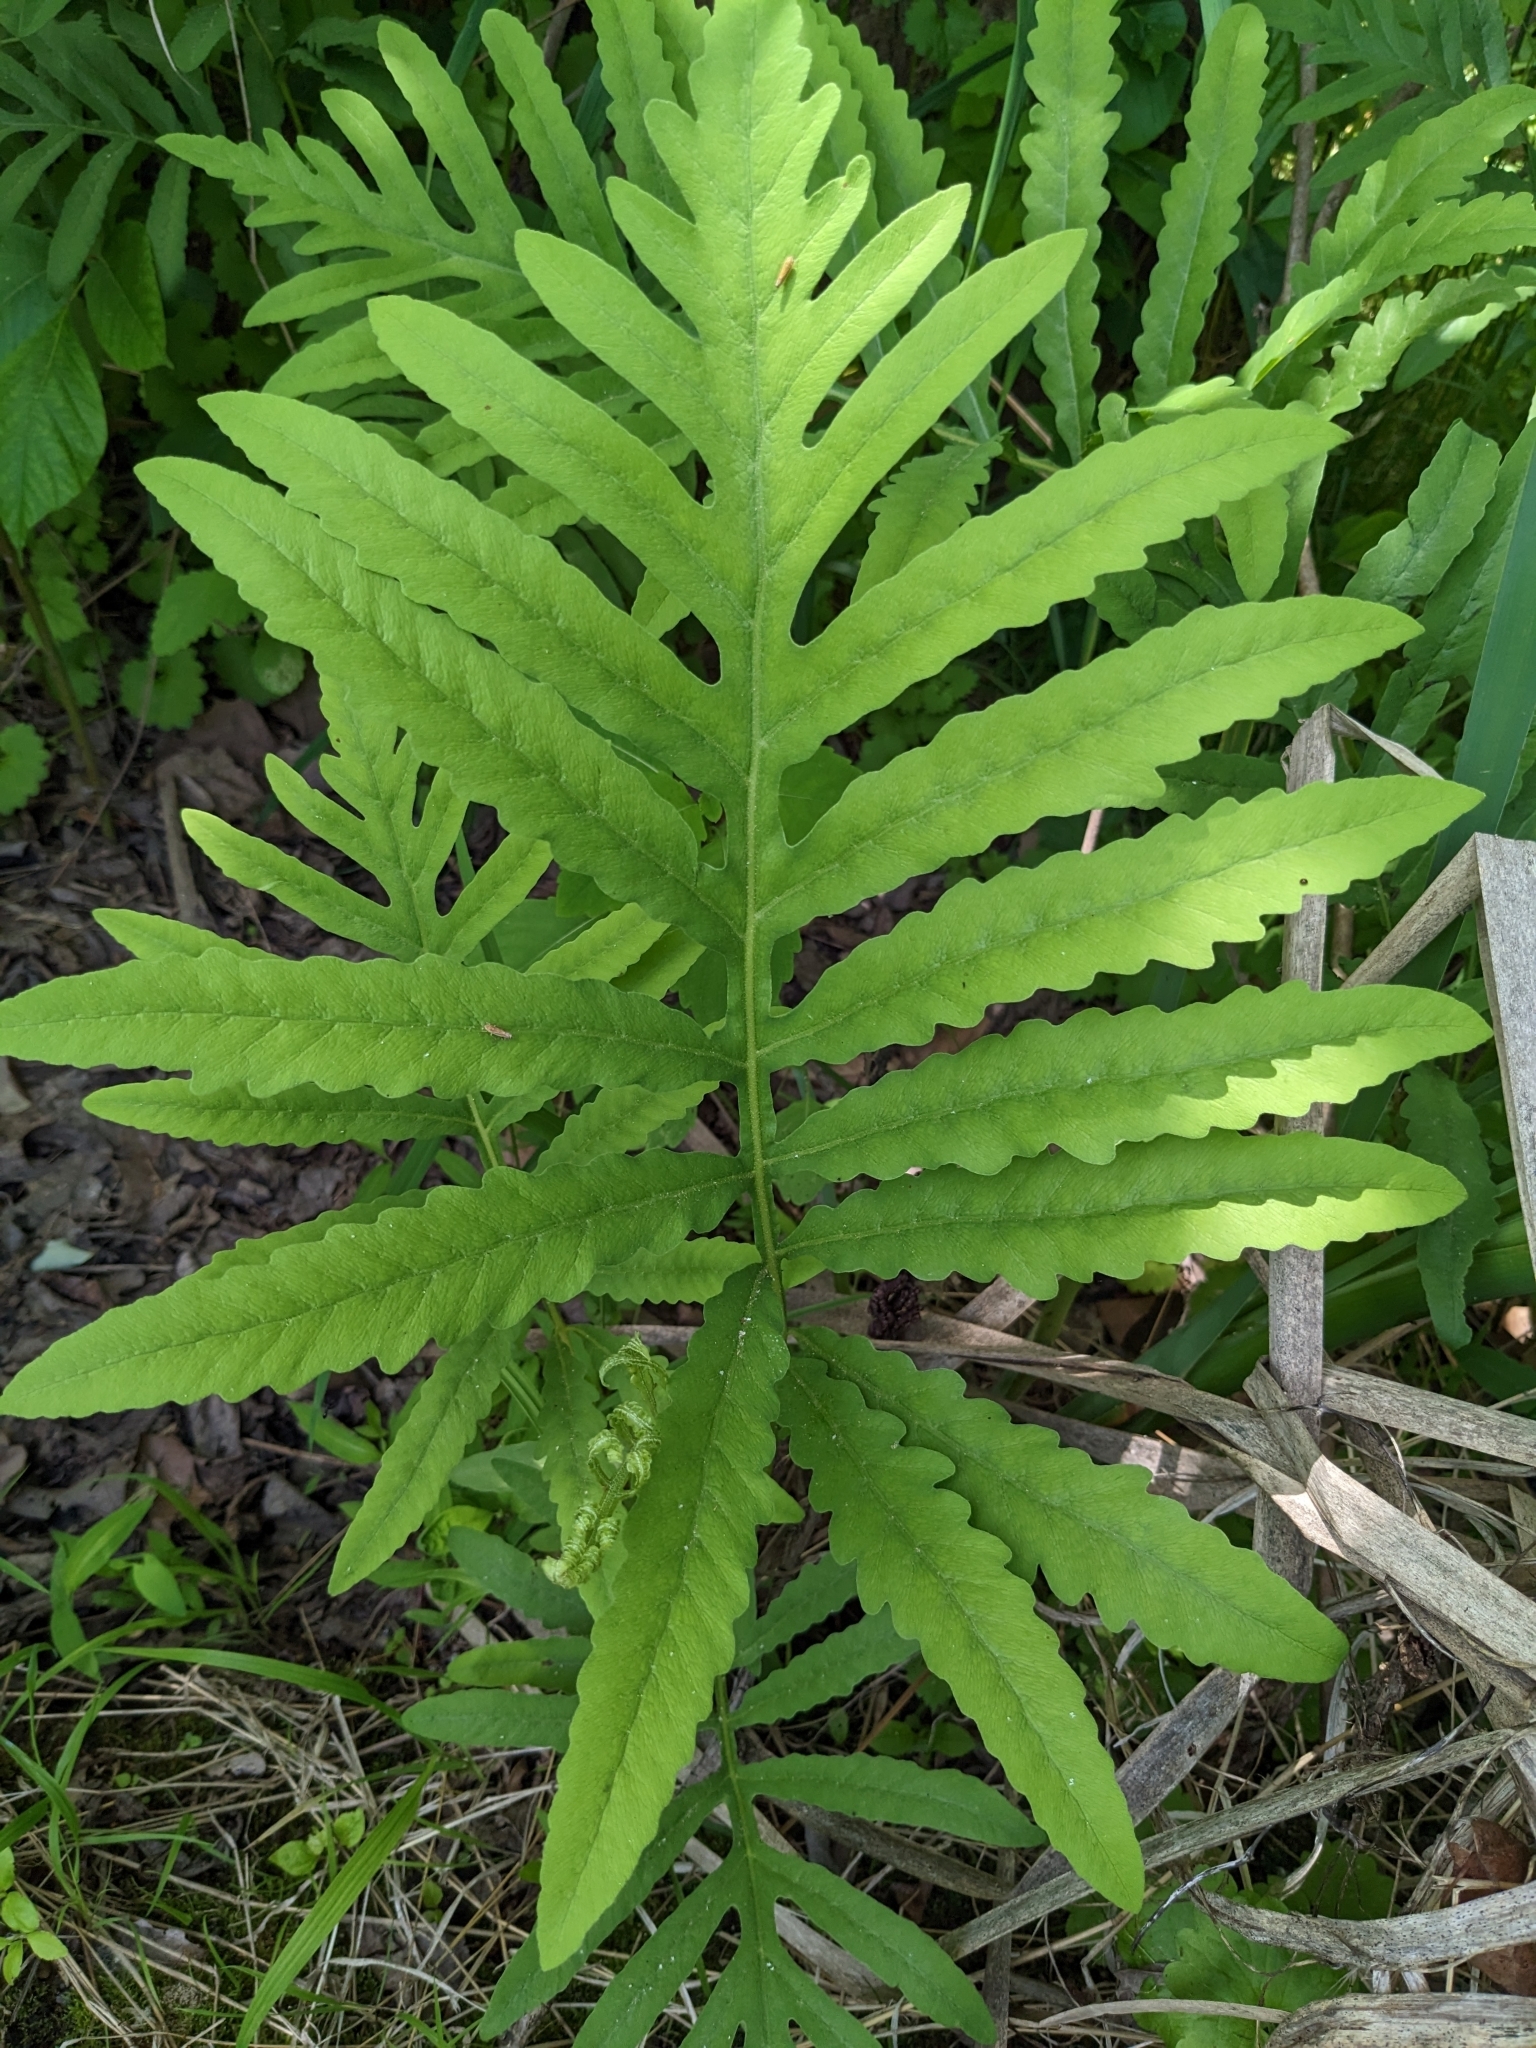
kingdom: Plantae
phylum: Tracheophyta
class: Polypodiopsida
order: Polypodiales
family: Onocleaceae
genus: Onoclea
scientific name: Onoclea sensibilis
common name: Sensitive fern
